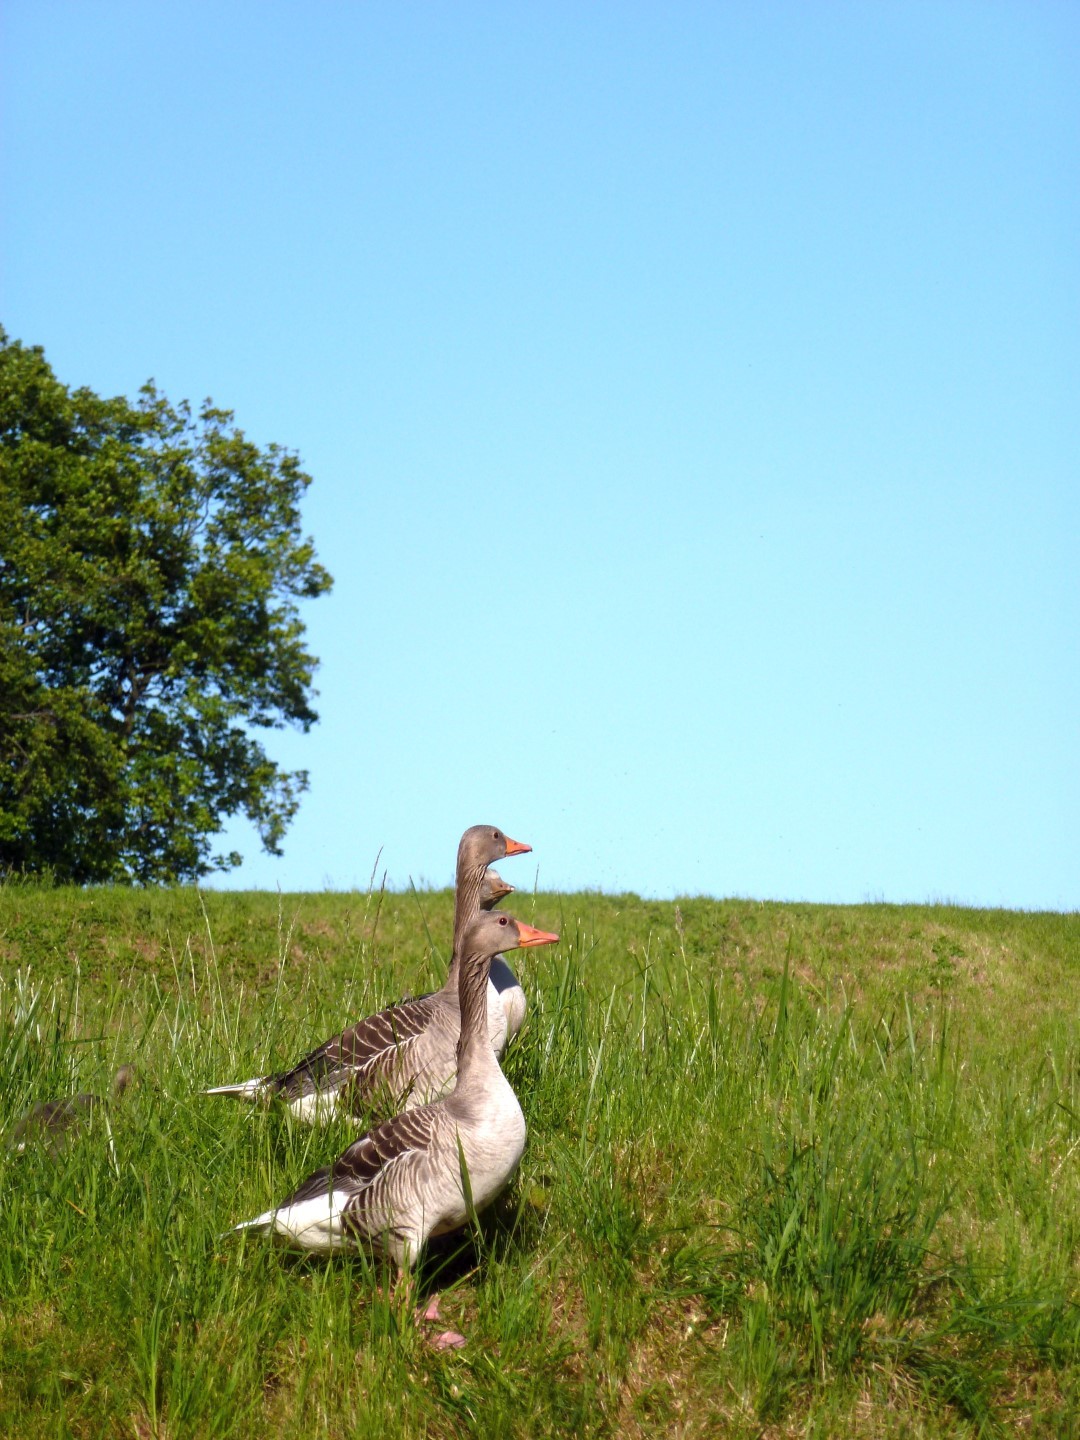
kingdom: Animalia
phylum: Chordata
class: Aves
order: Anseriformes
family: Anatidae
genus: Anser
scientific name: Anser anser
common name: Greylag goose
